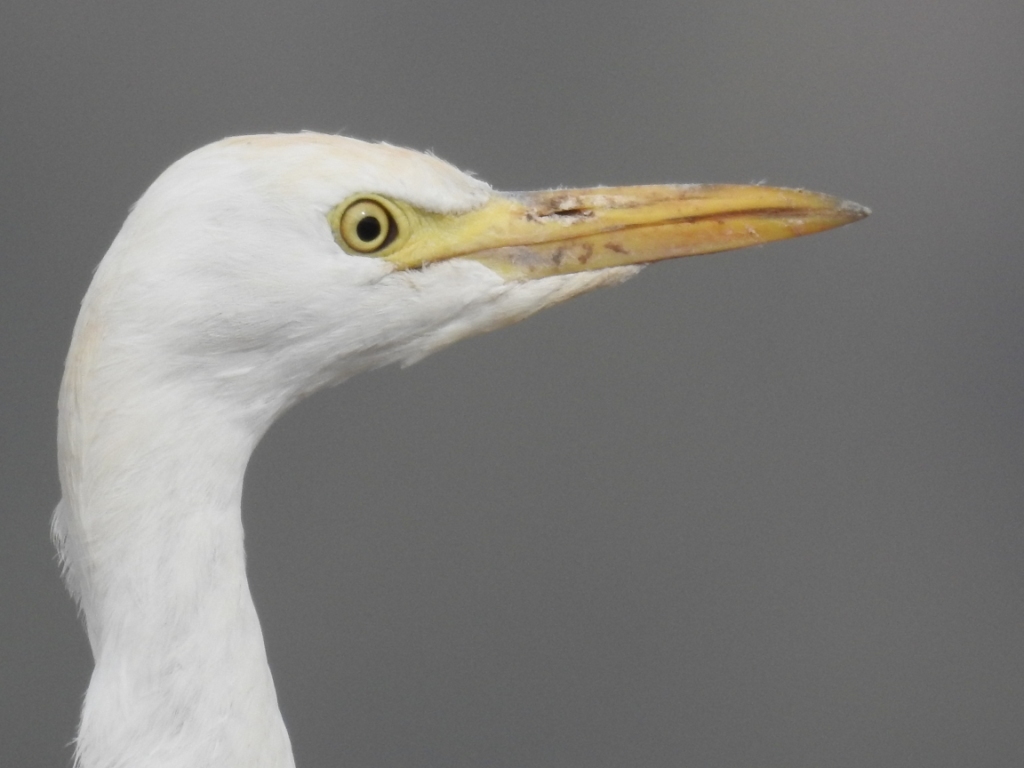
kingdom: Animalia
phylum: Chordata
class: Aves
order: Pelecaniformes
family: Ardeidae
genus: Bubulcus
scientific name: Bubulcus ibis
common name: Cattle egret
